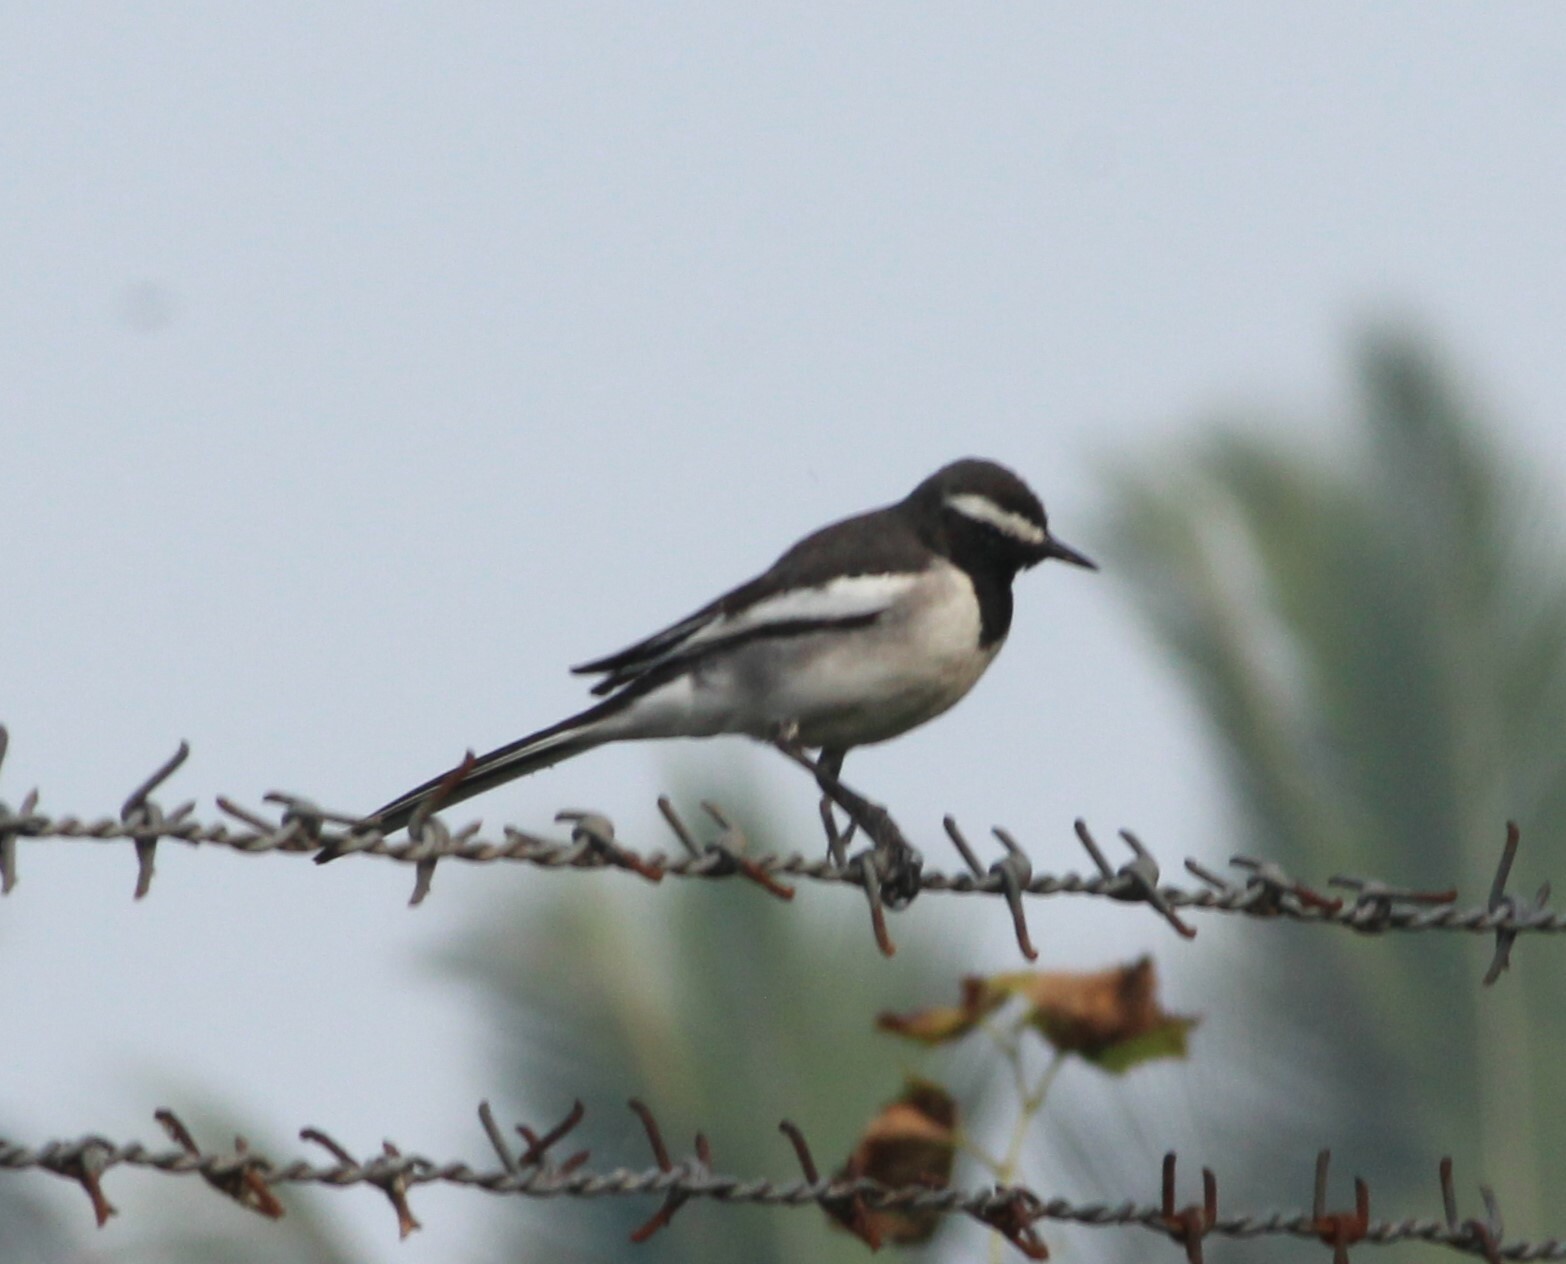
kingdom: Animalia
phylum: Chordata
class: Aves
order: Passeriformes
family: Motacillidae
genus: Motacilla
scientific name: Motacilla maderaspatensis
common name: White-browed wagtail
